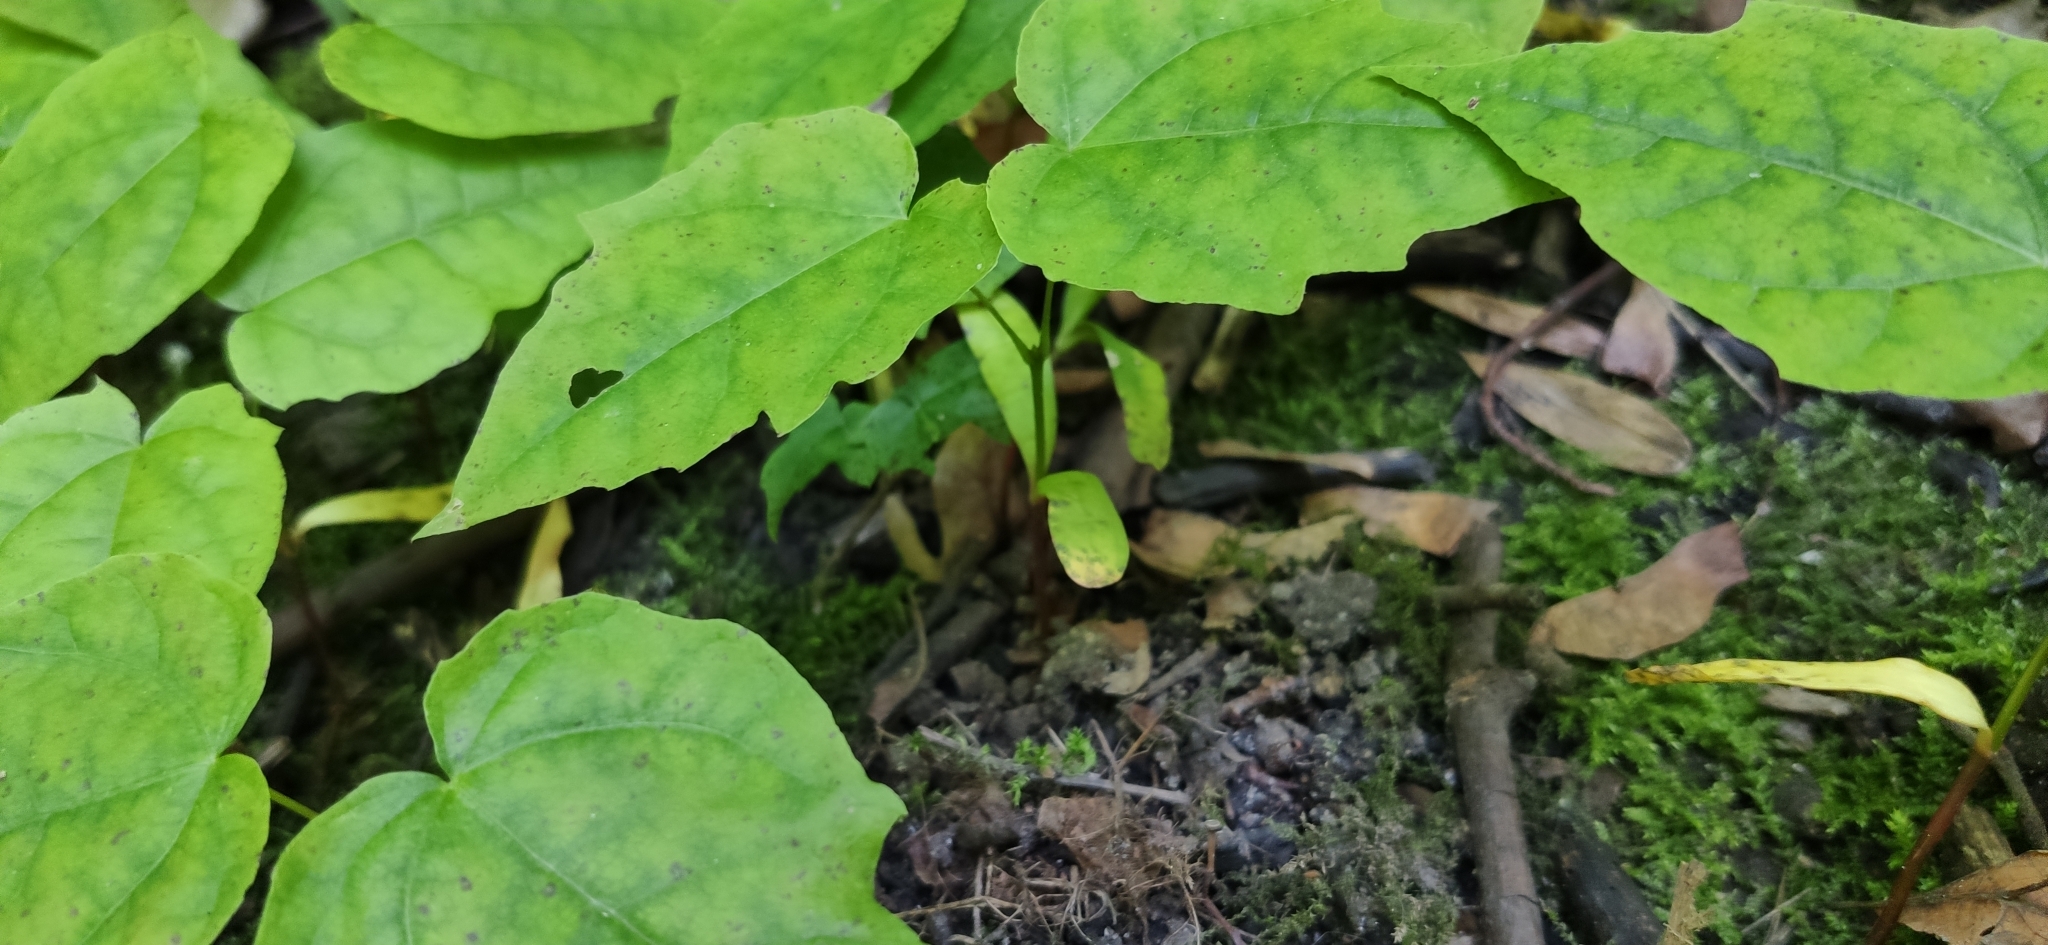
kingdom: Plantae
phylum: Tracheophyta
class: Magnoliopsida
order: Sapindales
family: Sapindaceae
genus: Acer
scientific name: Acer platanoides
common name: Norway maple
